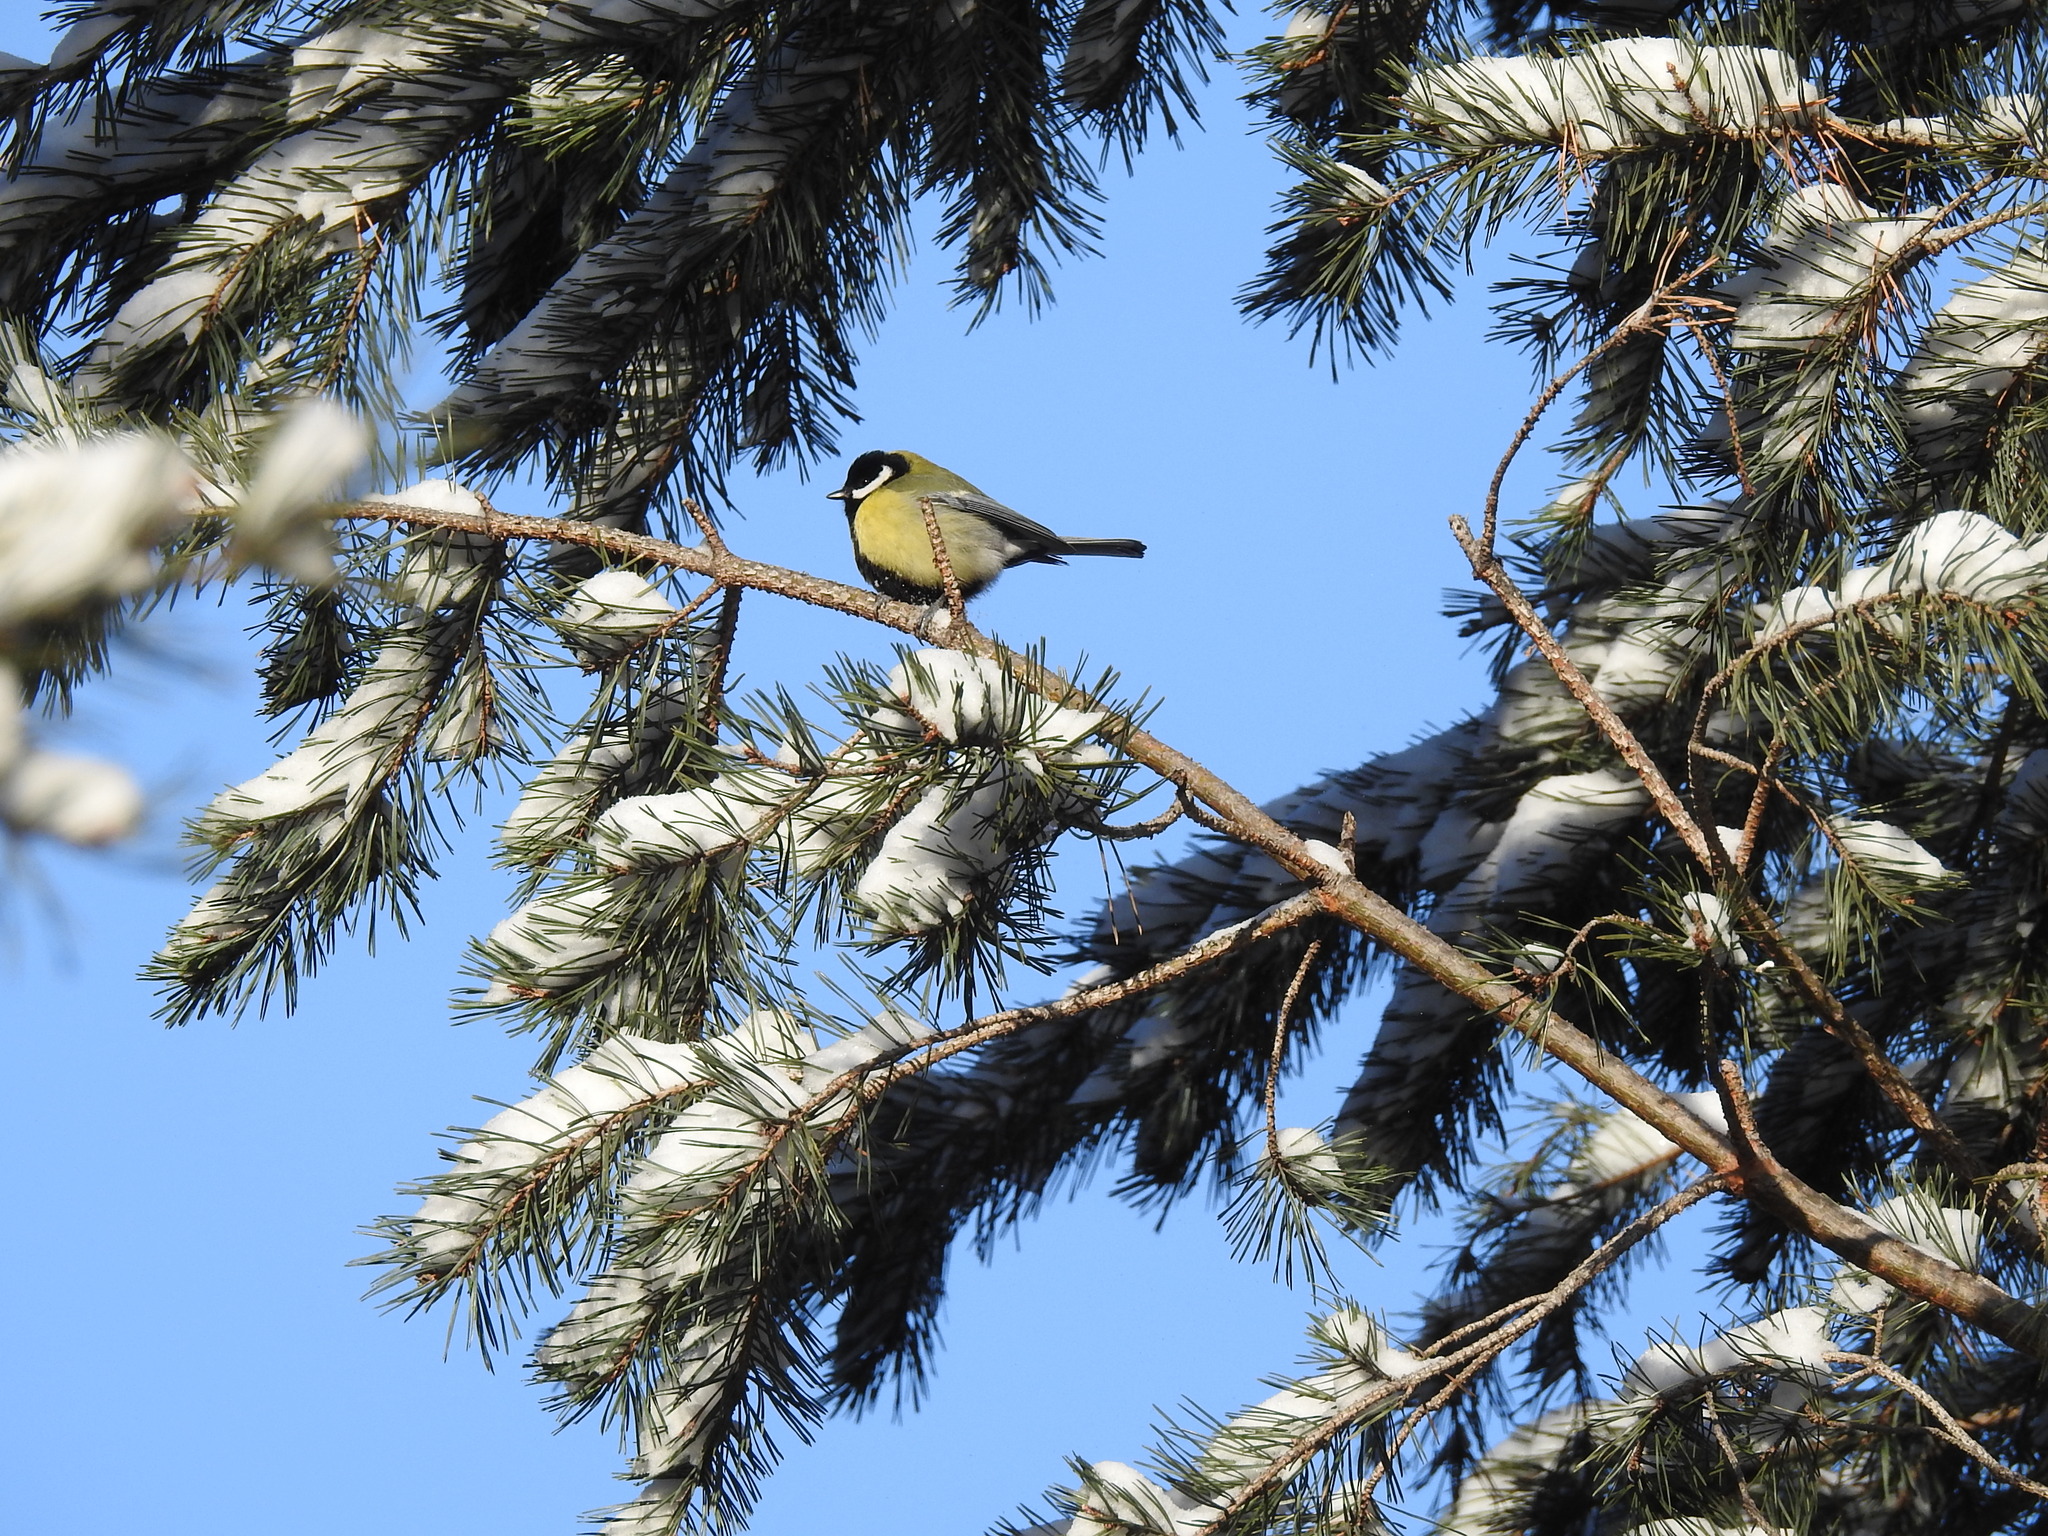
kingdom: Animalia
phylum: Chordata
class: Aves
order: Passeriformes
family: Paridae
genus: Parus
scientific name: Parus major
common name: Great tit
